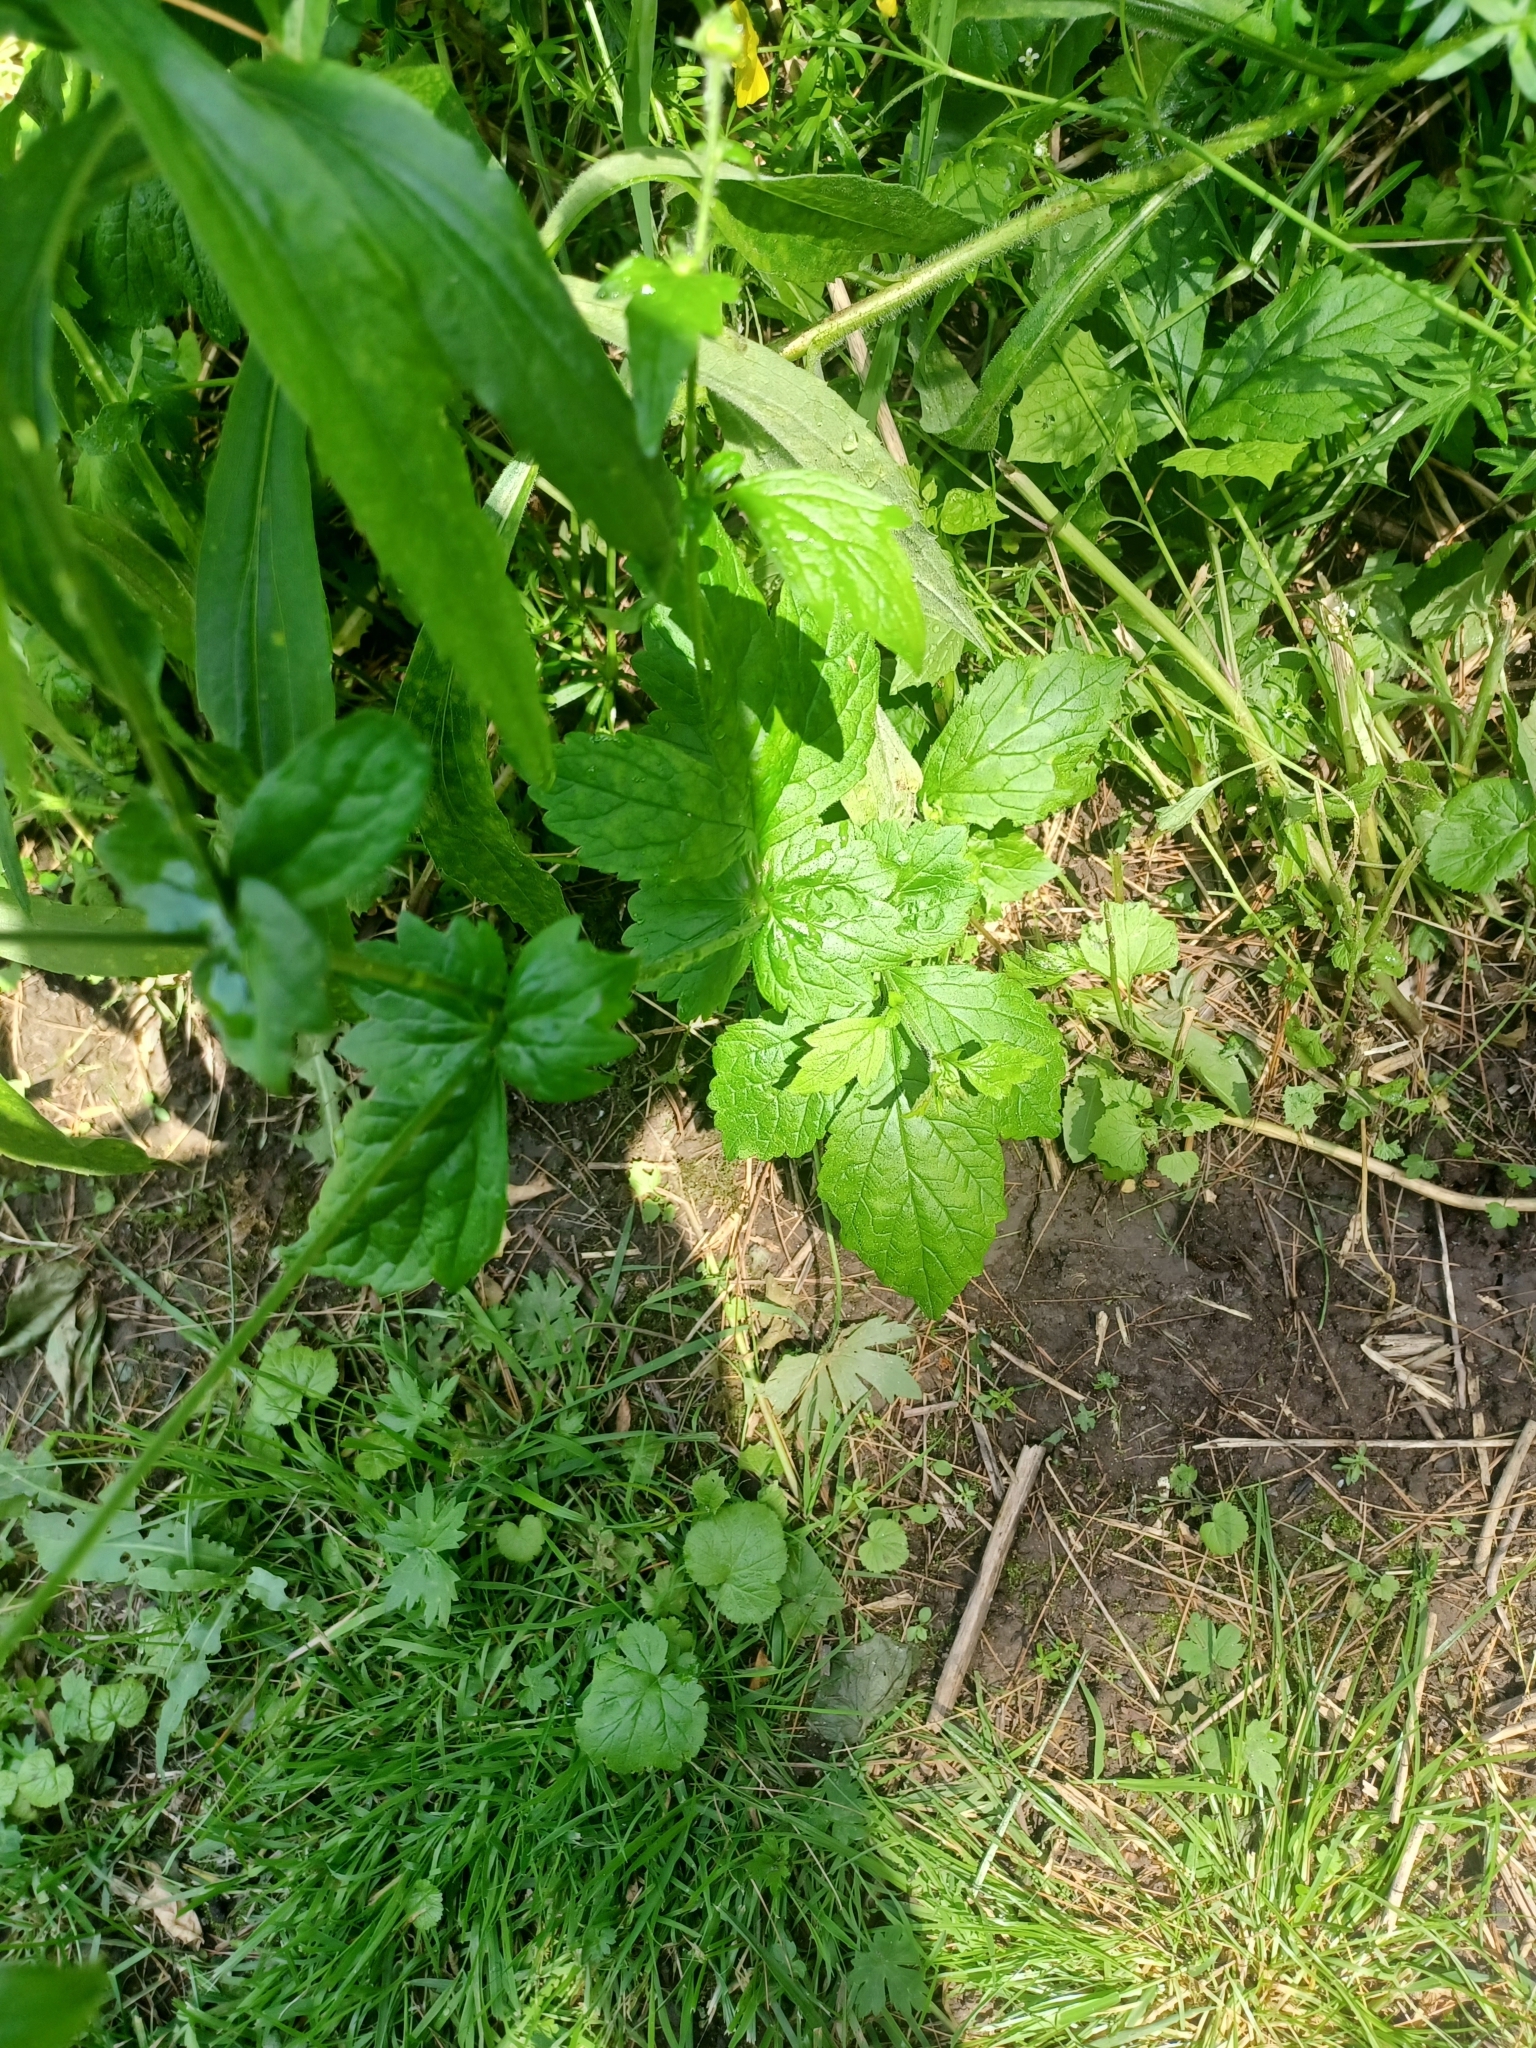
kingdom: Plantae
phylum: Tracheophyta
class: Magnoliopsida
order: Rosales
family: Rosaceae
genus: Geum
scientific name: Geum urbanum
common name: Wood avens
